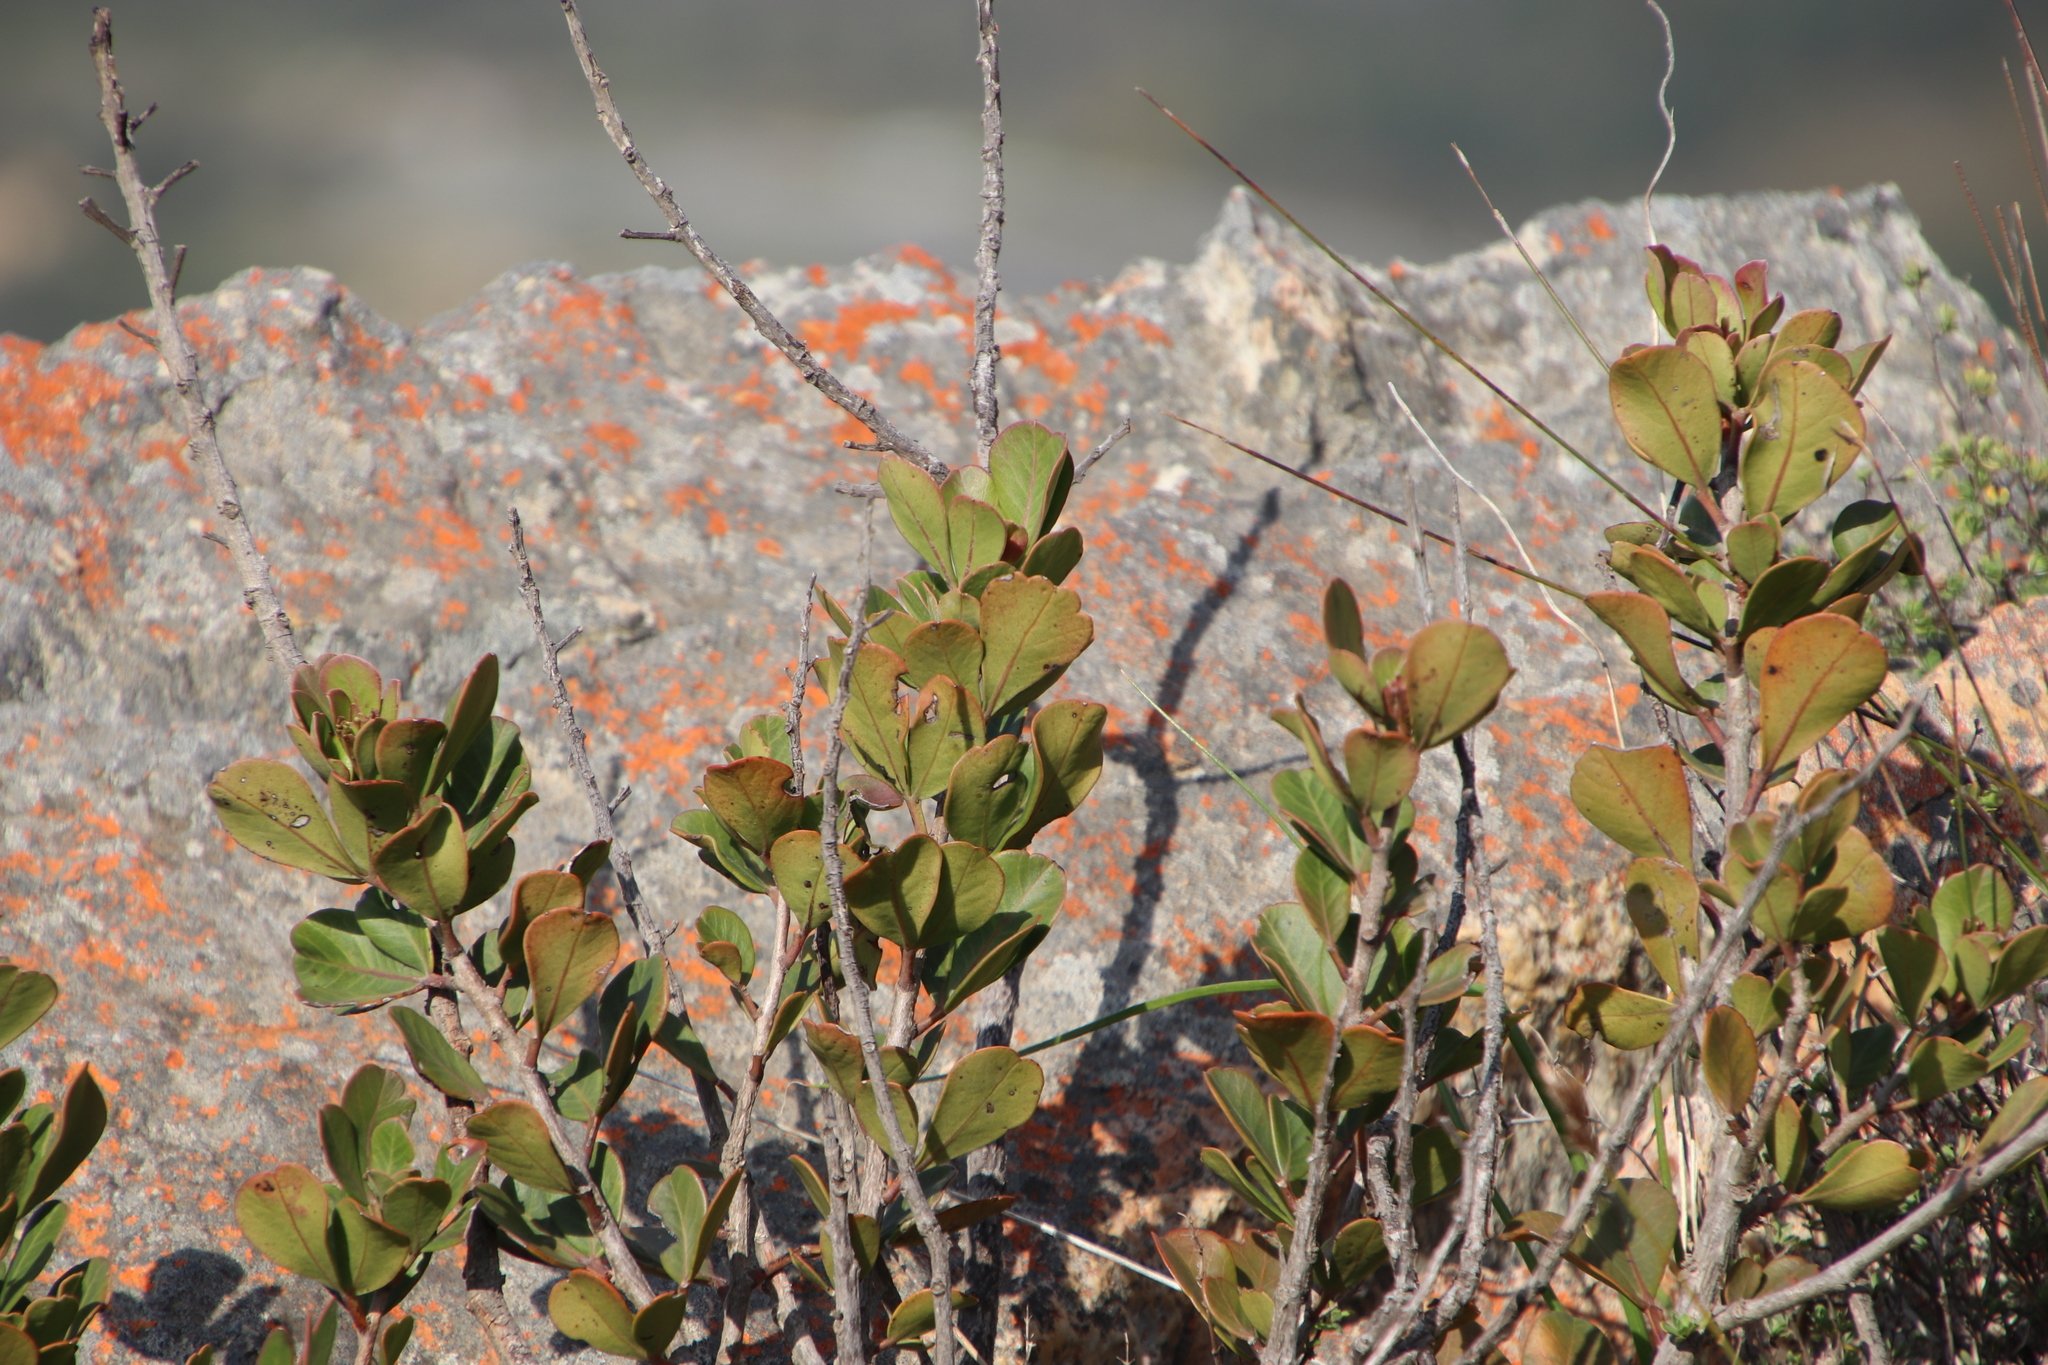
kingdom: Plantae
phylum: Tracheophyta
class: Magnoliopsida
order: Sapindales
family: Anacardiaceae
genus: Searsia
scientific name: Searsia scytophylla
